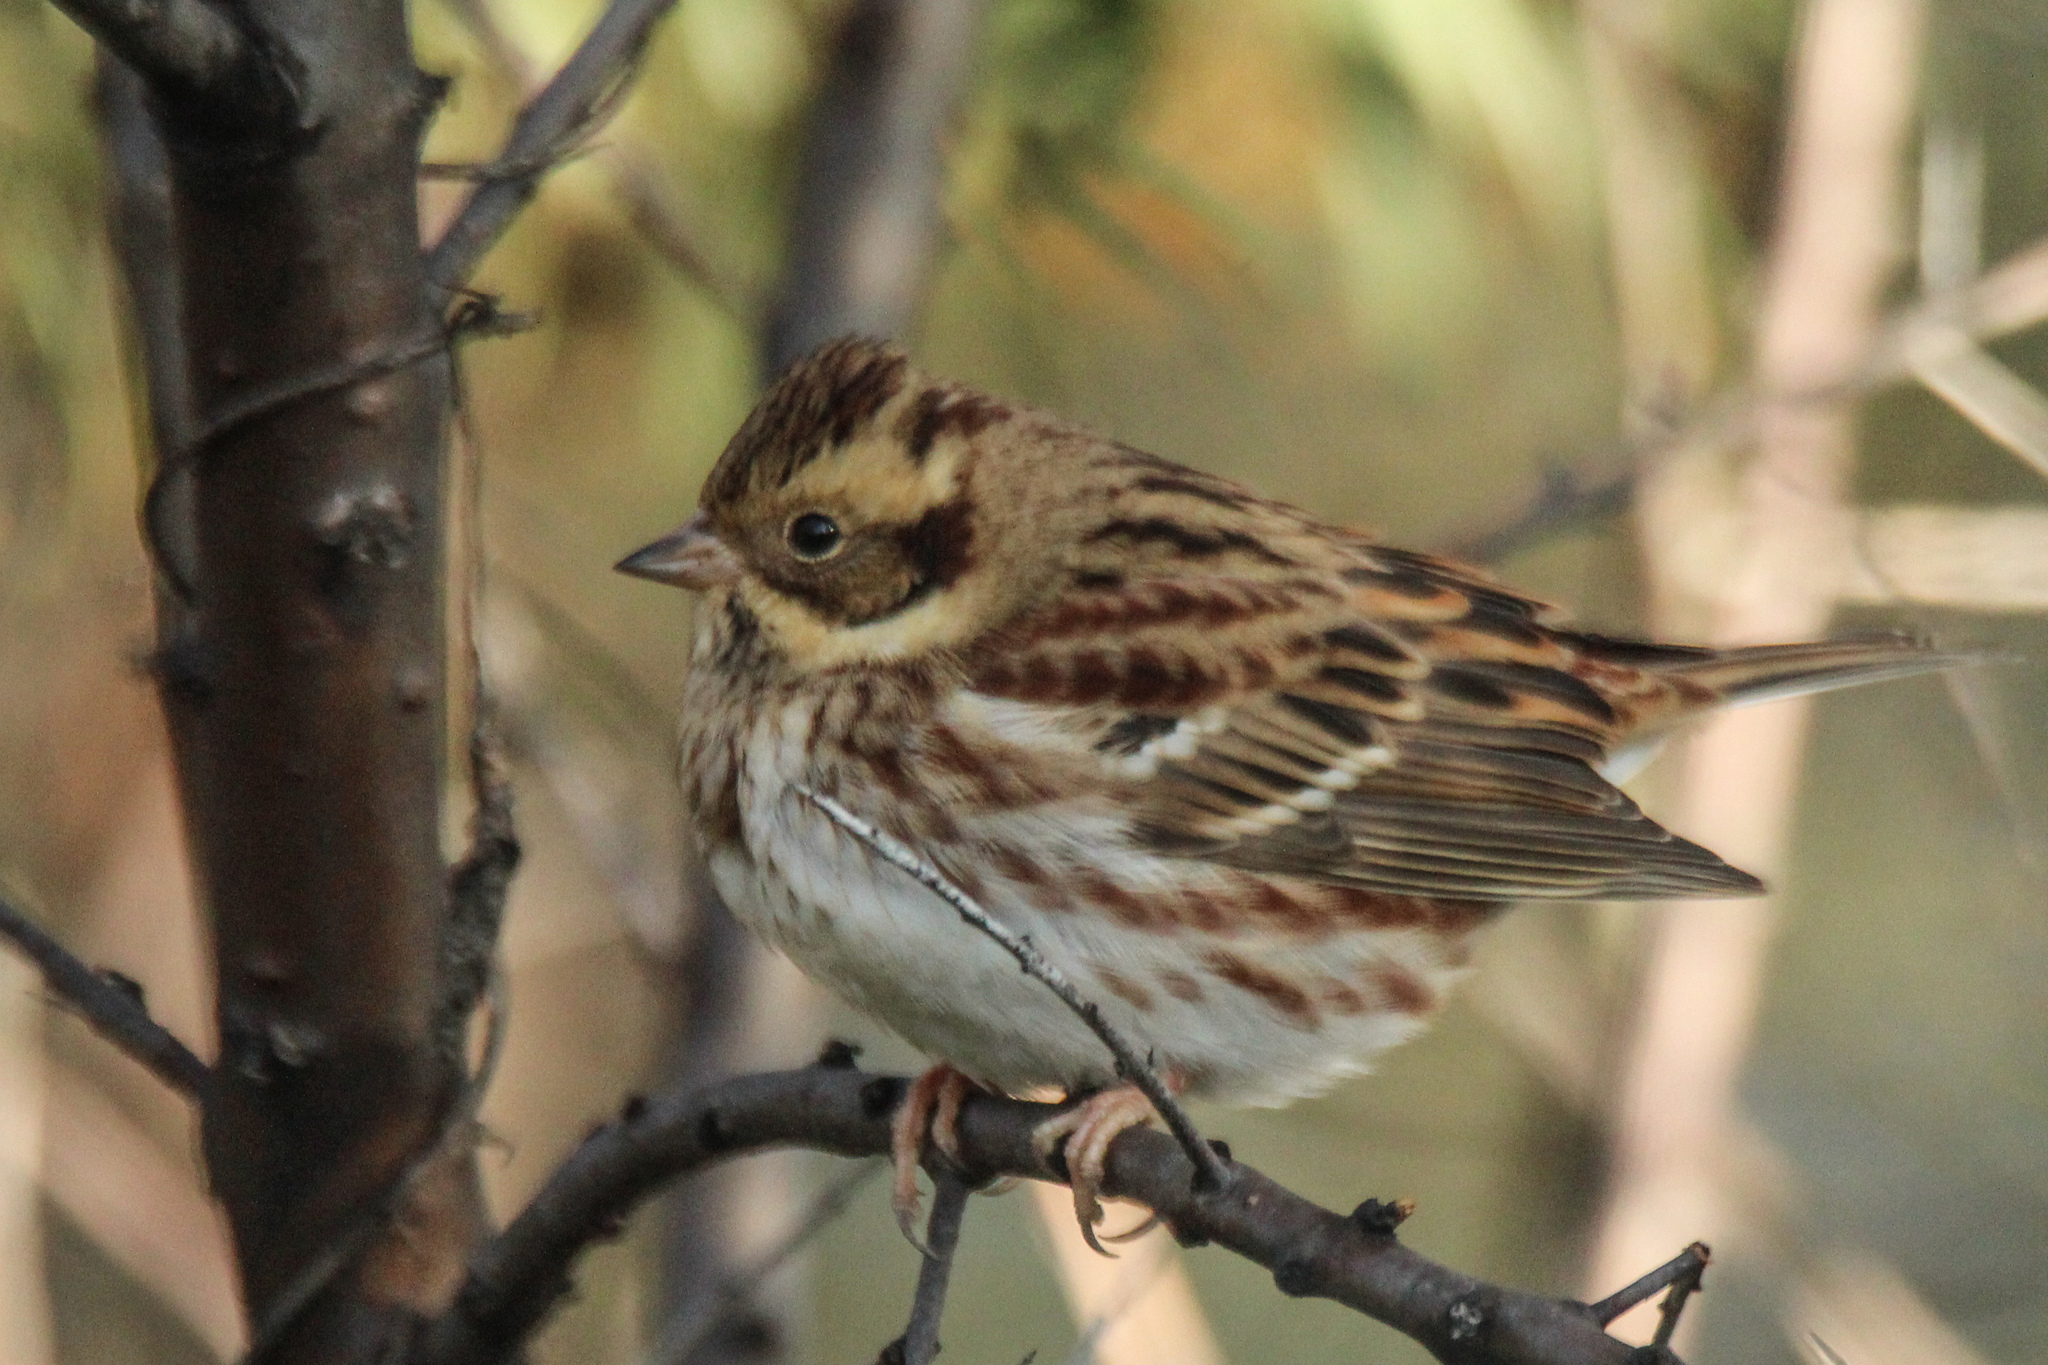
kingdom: Animalia
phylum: Chordata
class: Aves
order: Passeriformes
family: Emberizidae
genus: Emberiza
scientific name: Emberiza rustica
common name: Rustic bunting
